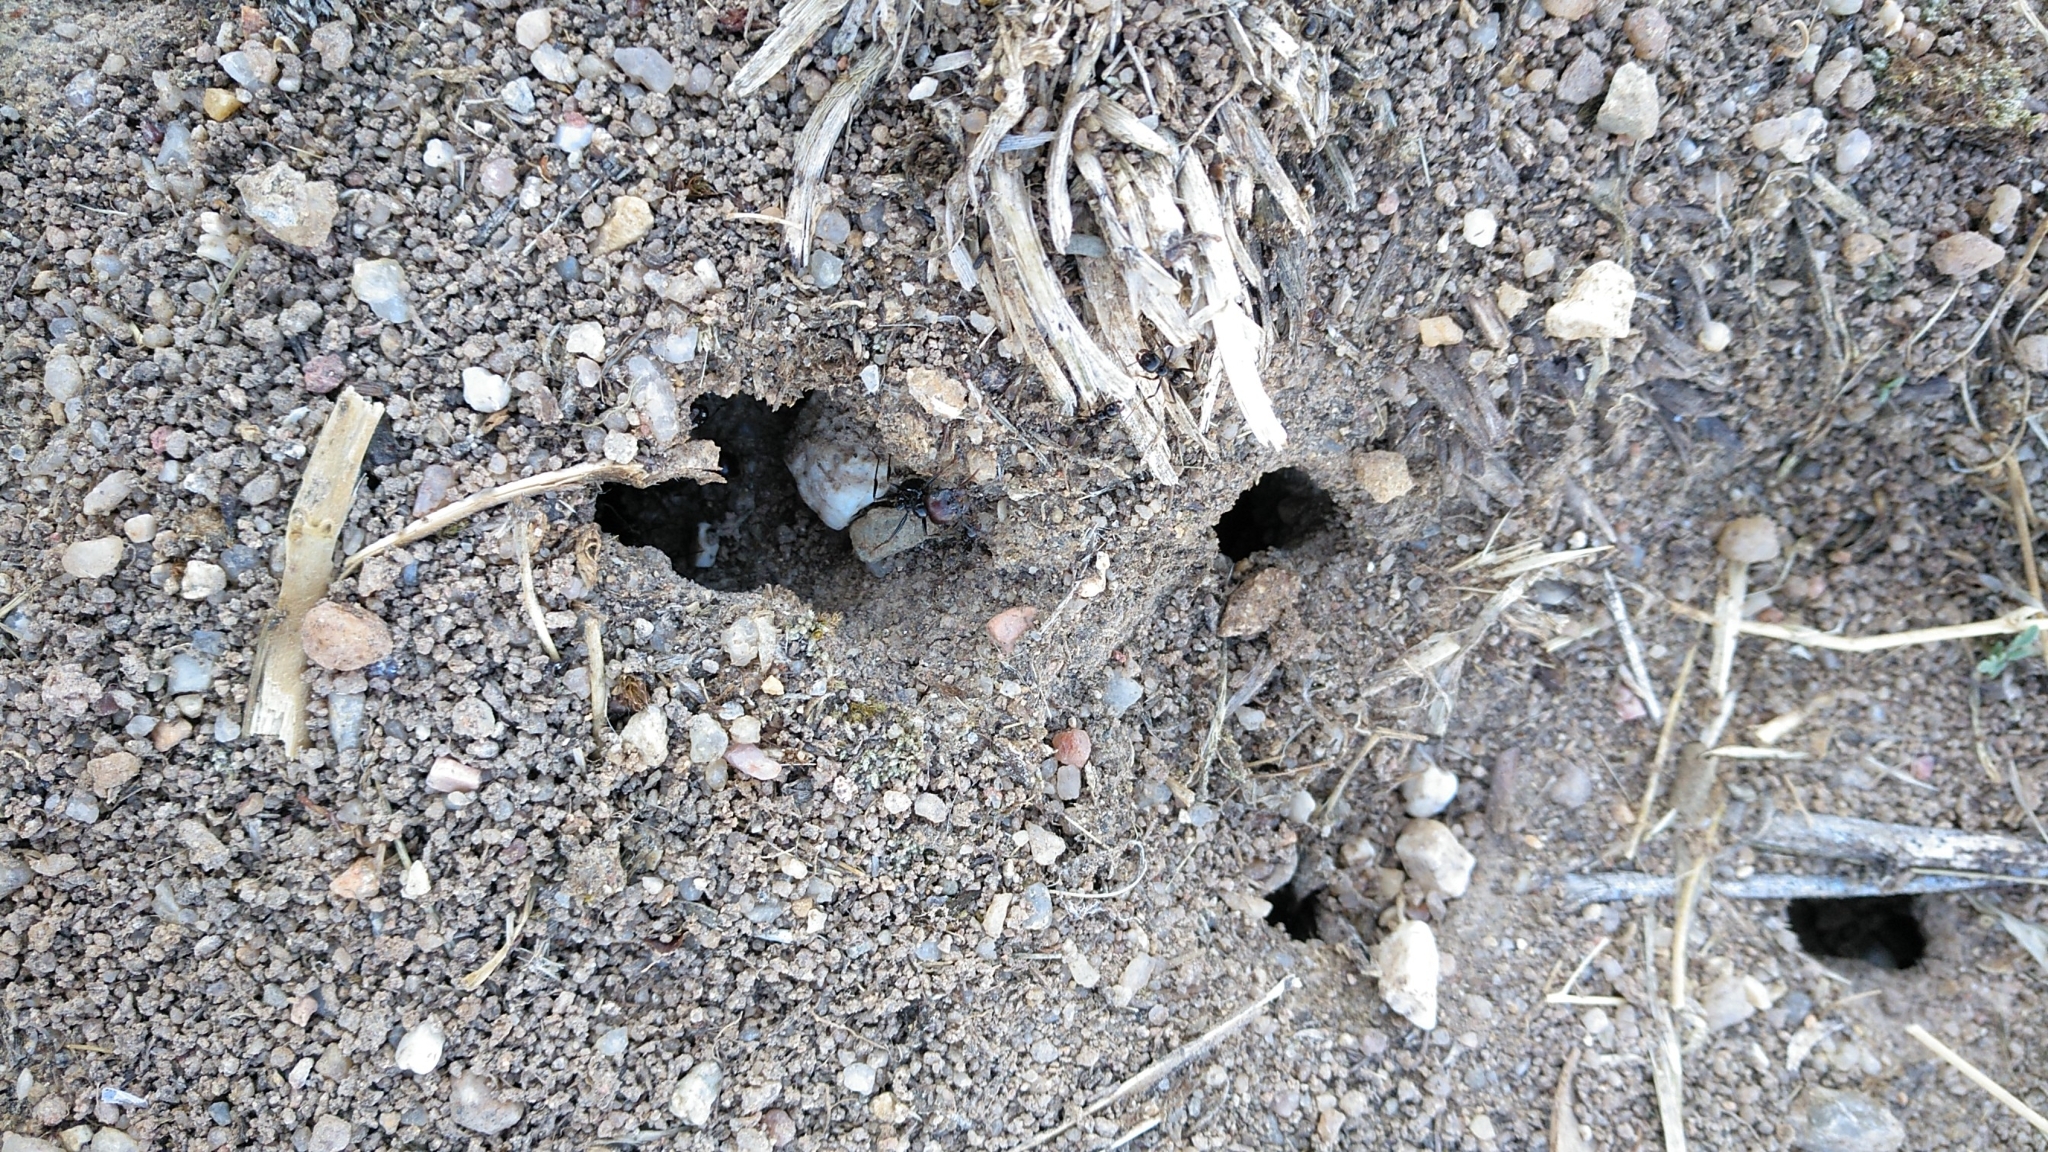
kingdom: Animalia
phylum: Arthropoda
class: Insecta
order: Hymenoptera
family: Formicidae
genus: Messor
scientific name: Messor barbarus
